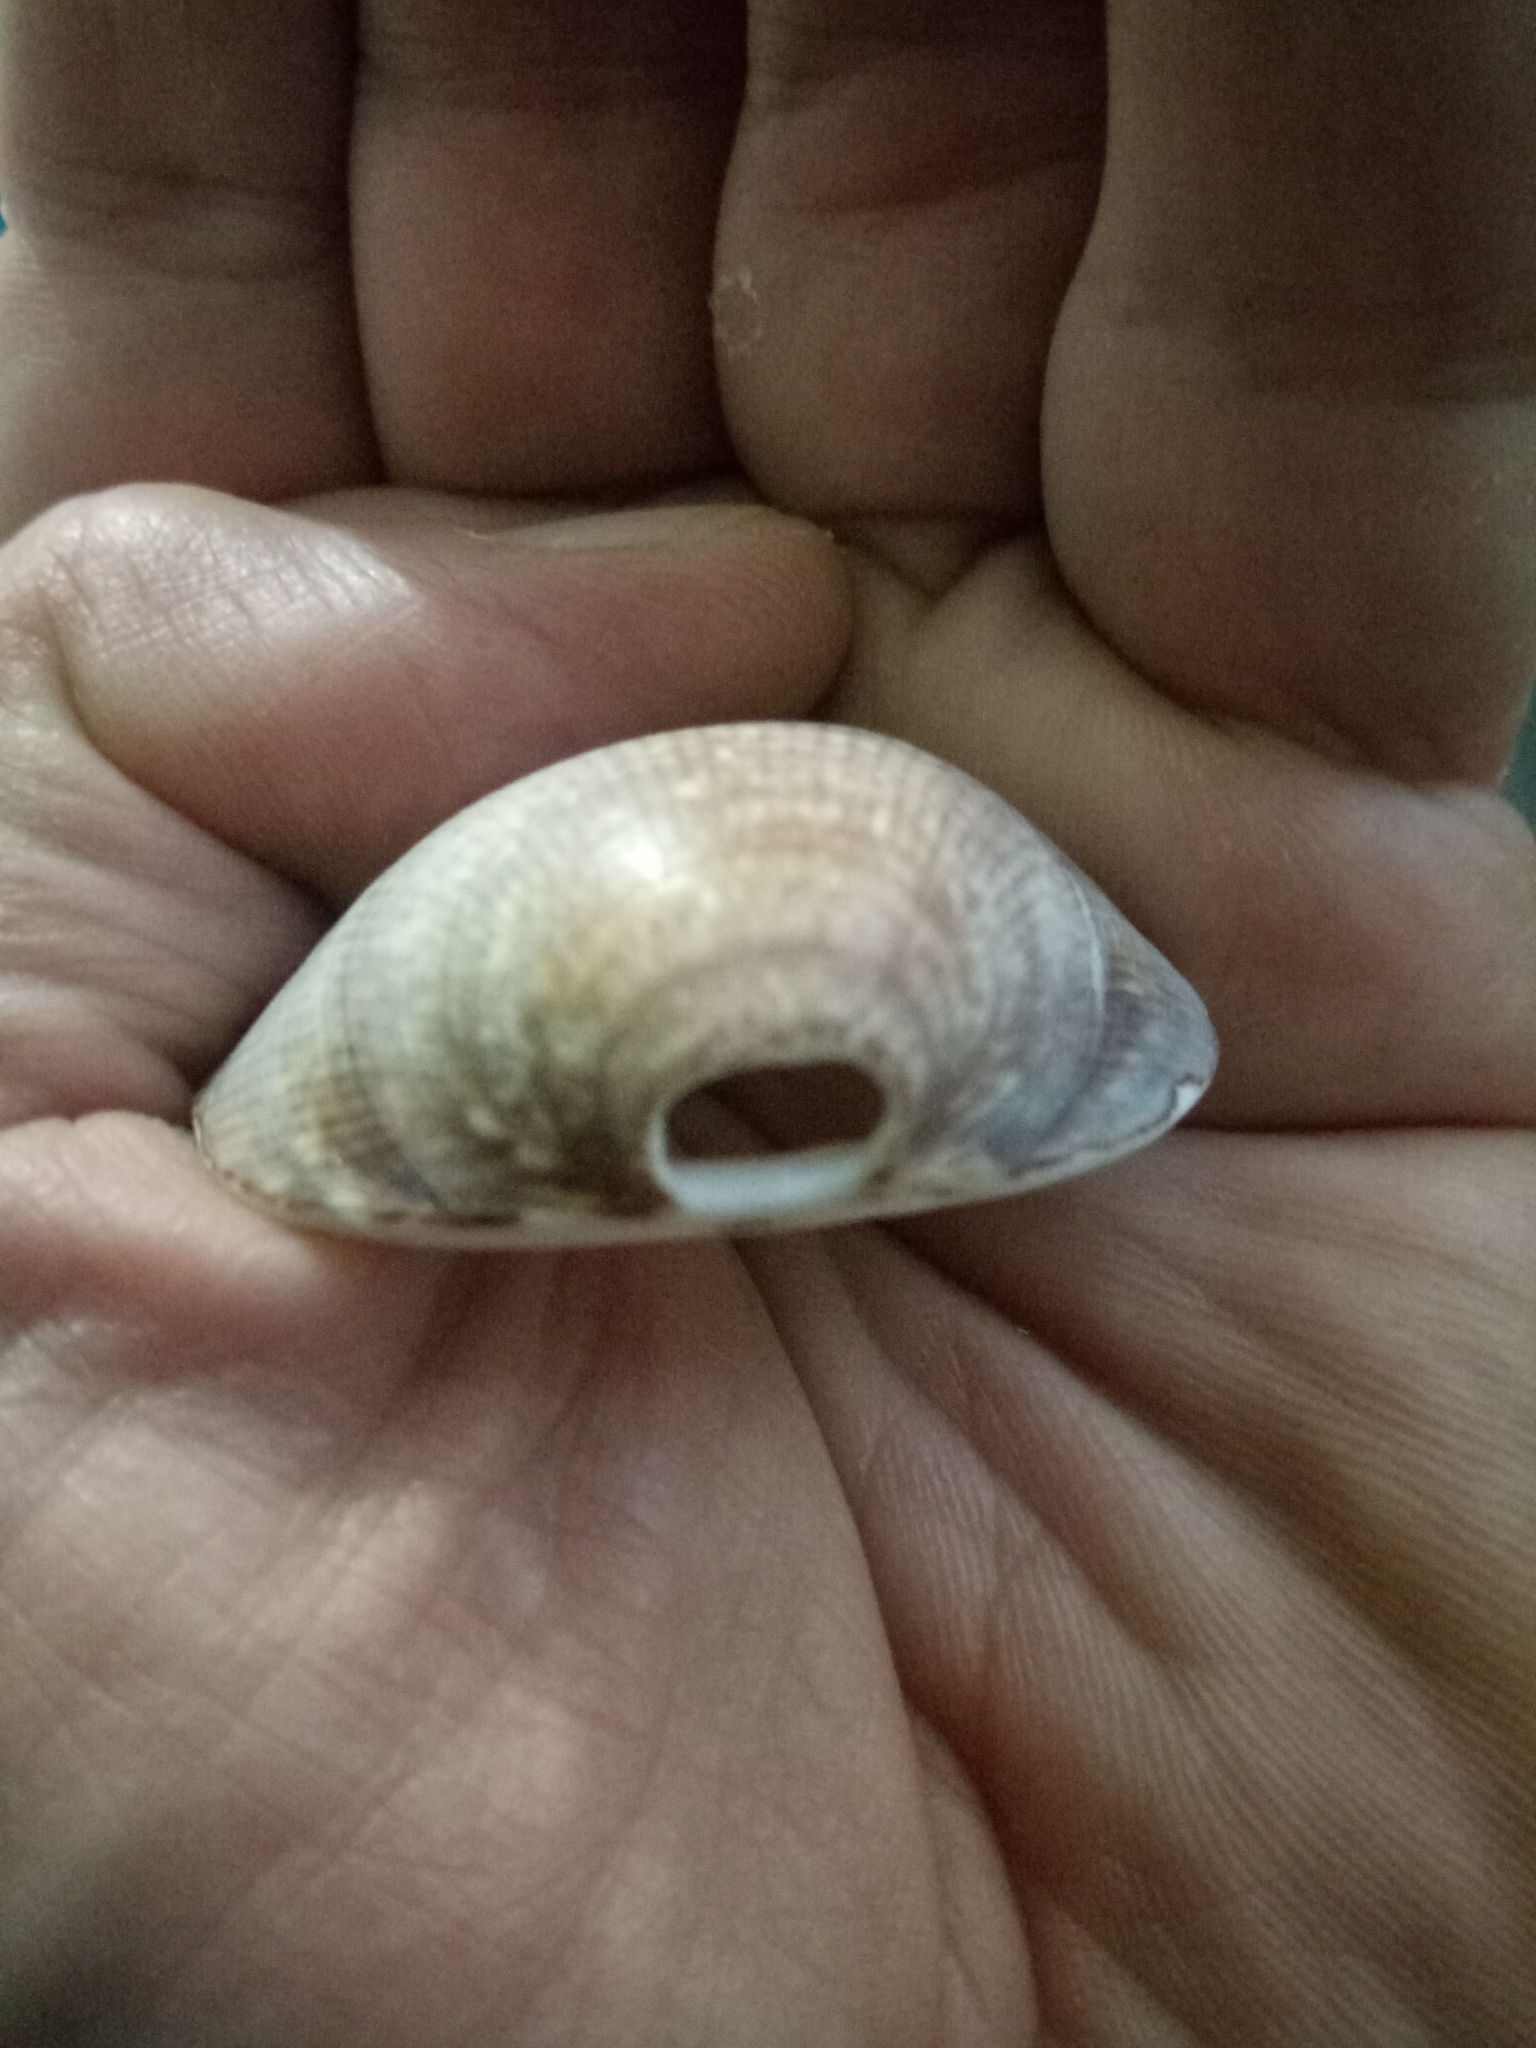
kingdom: Animalia
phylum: Mollusca
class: Bivalvia
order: Arcida
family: Glycymerididae
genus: Glycymeris
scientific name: Glycymeris glycymeris
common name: Dog-cockle
